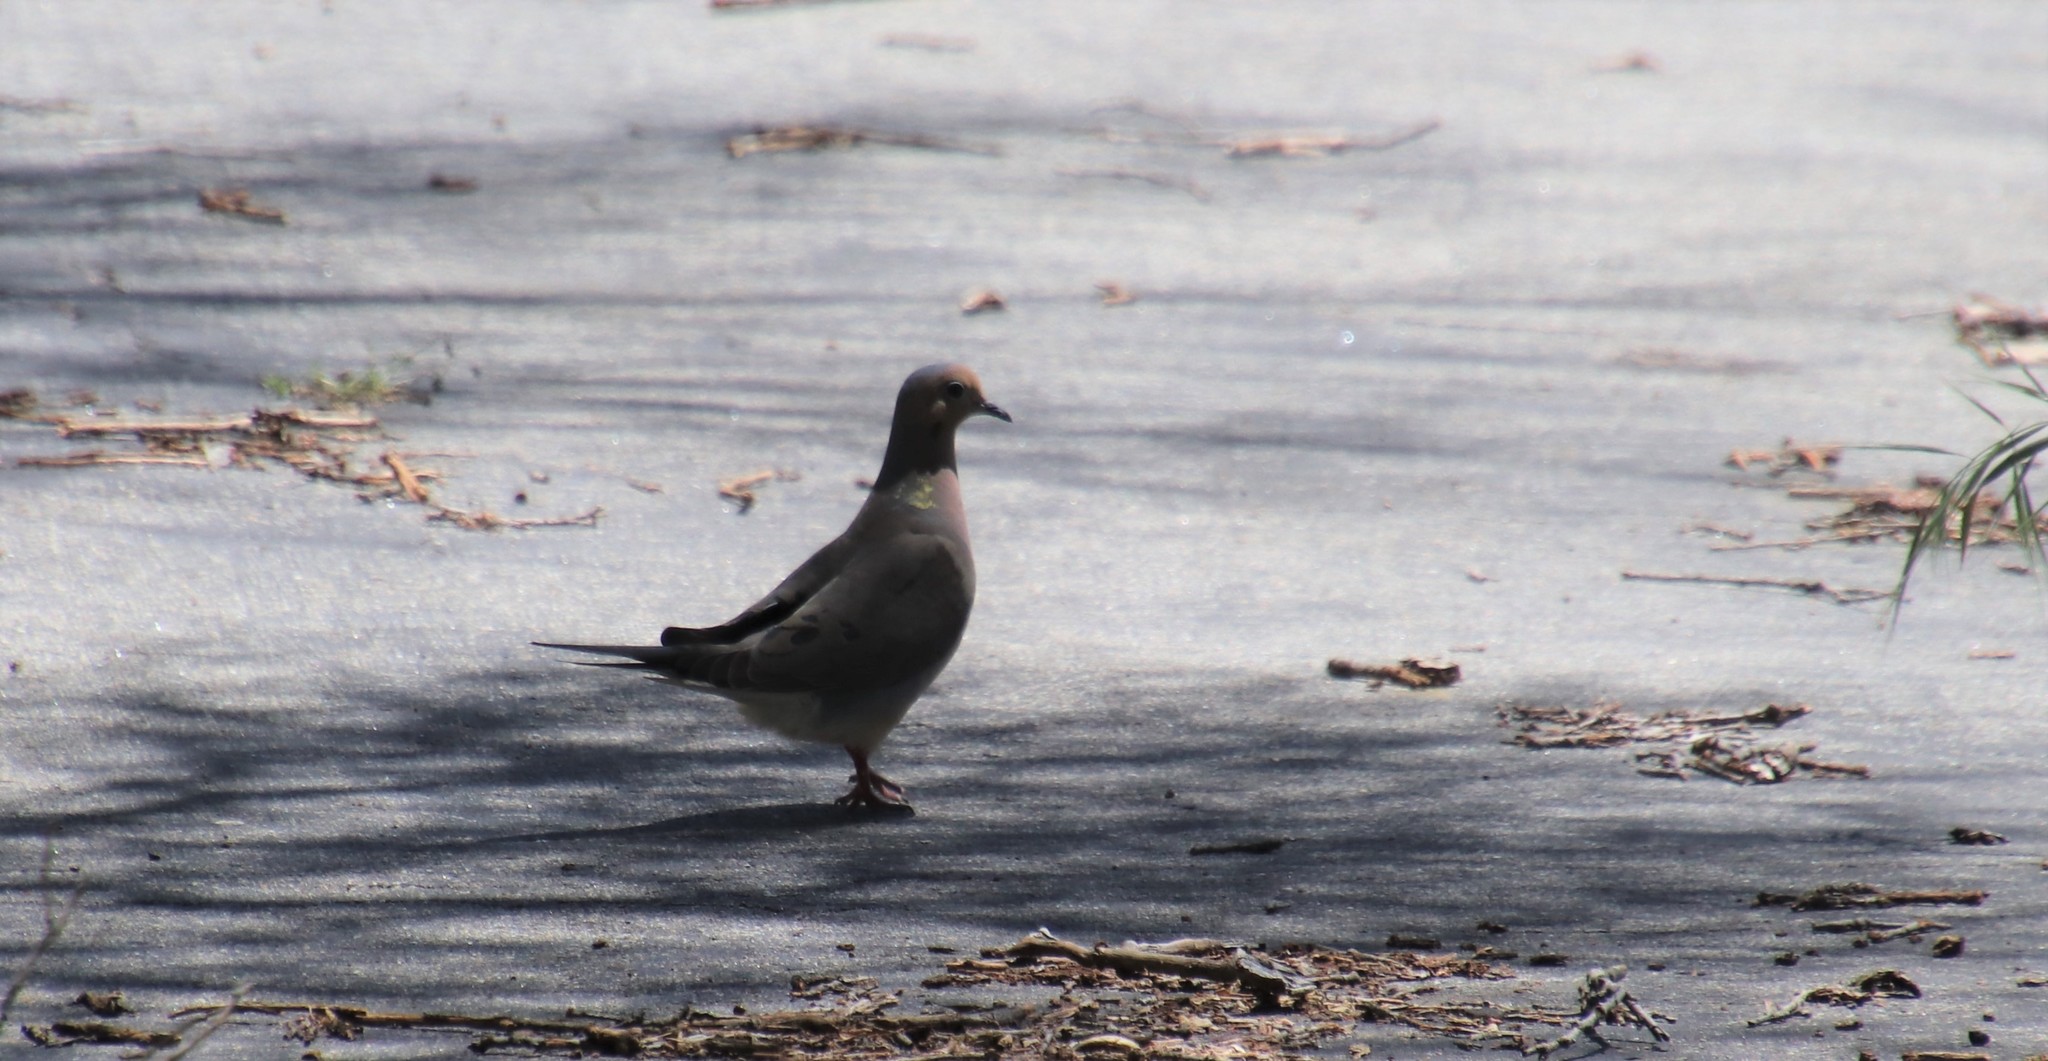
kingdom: Animalia
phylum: Chordata
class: Aves
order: Columbiformes
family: Columbidae
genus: Zenaida
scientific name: Zenaida macroura
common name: Mourning dove
